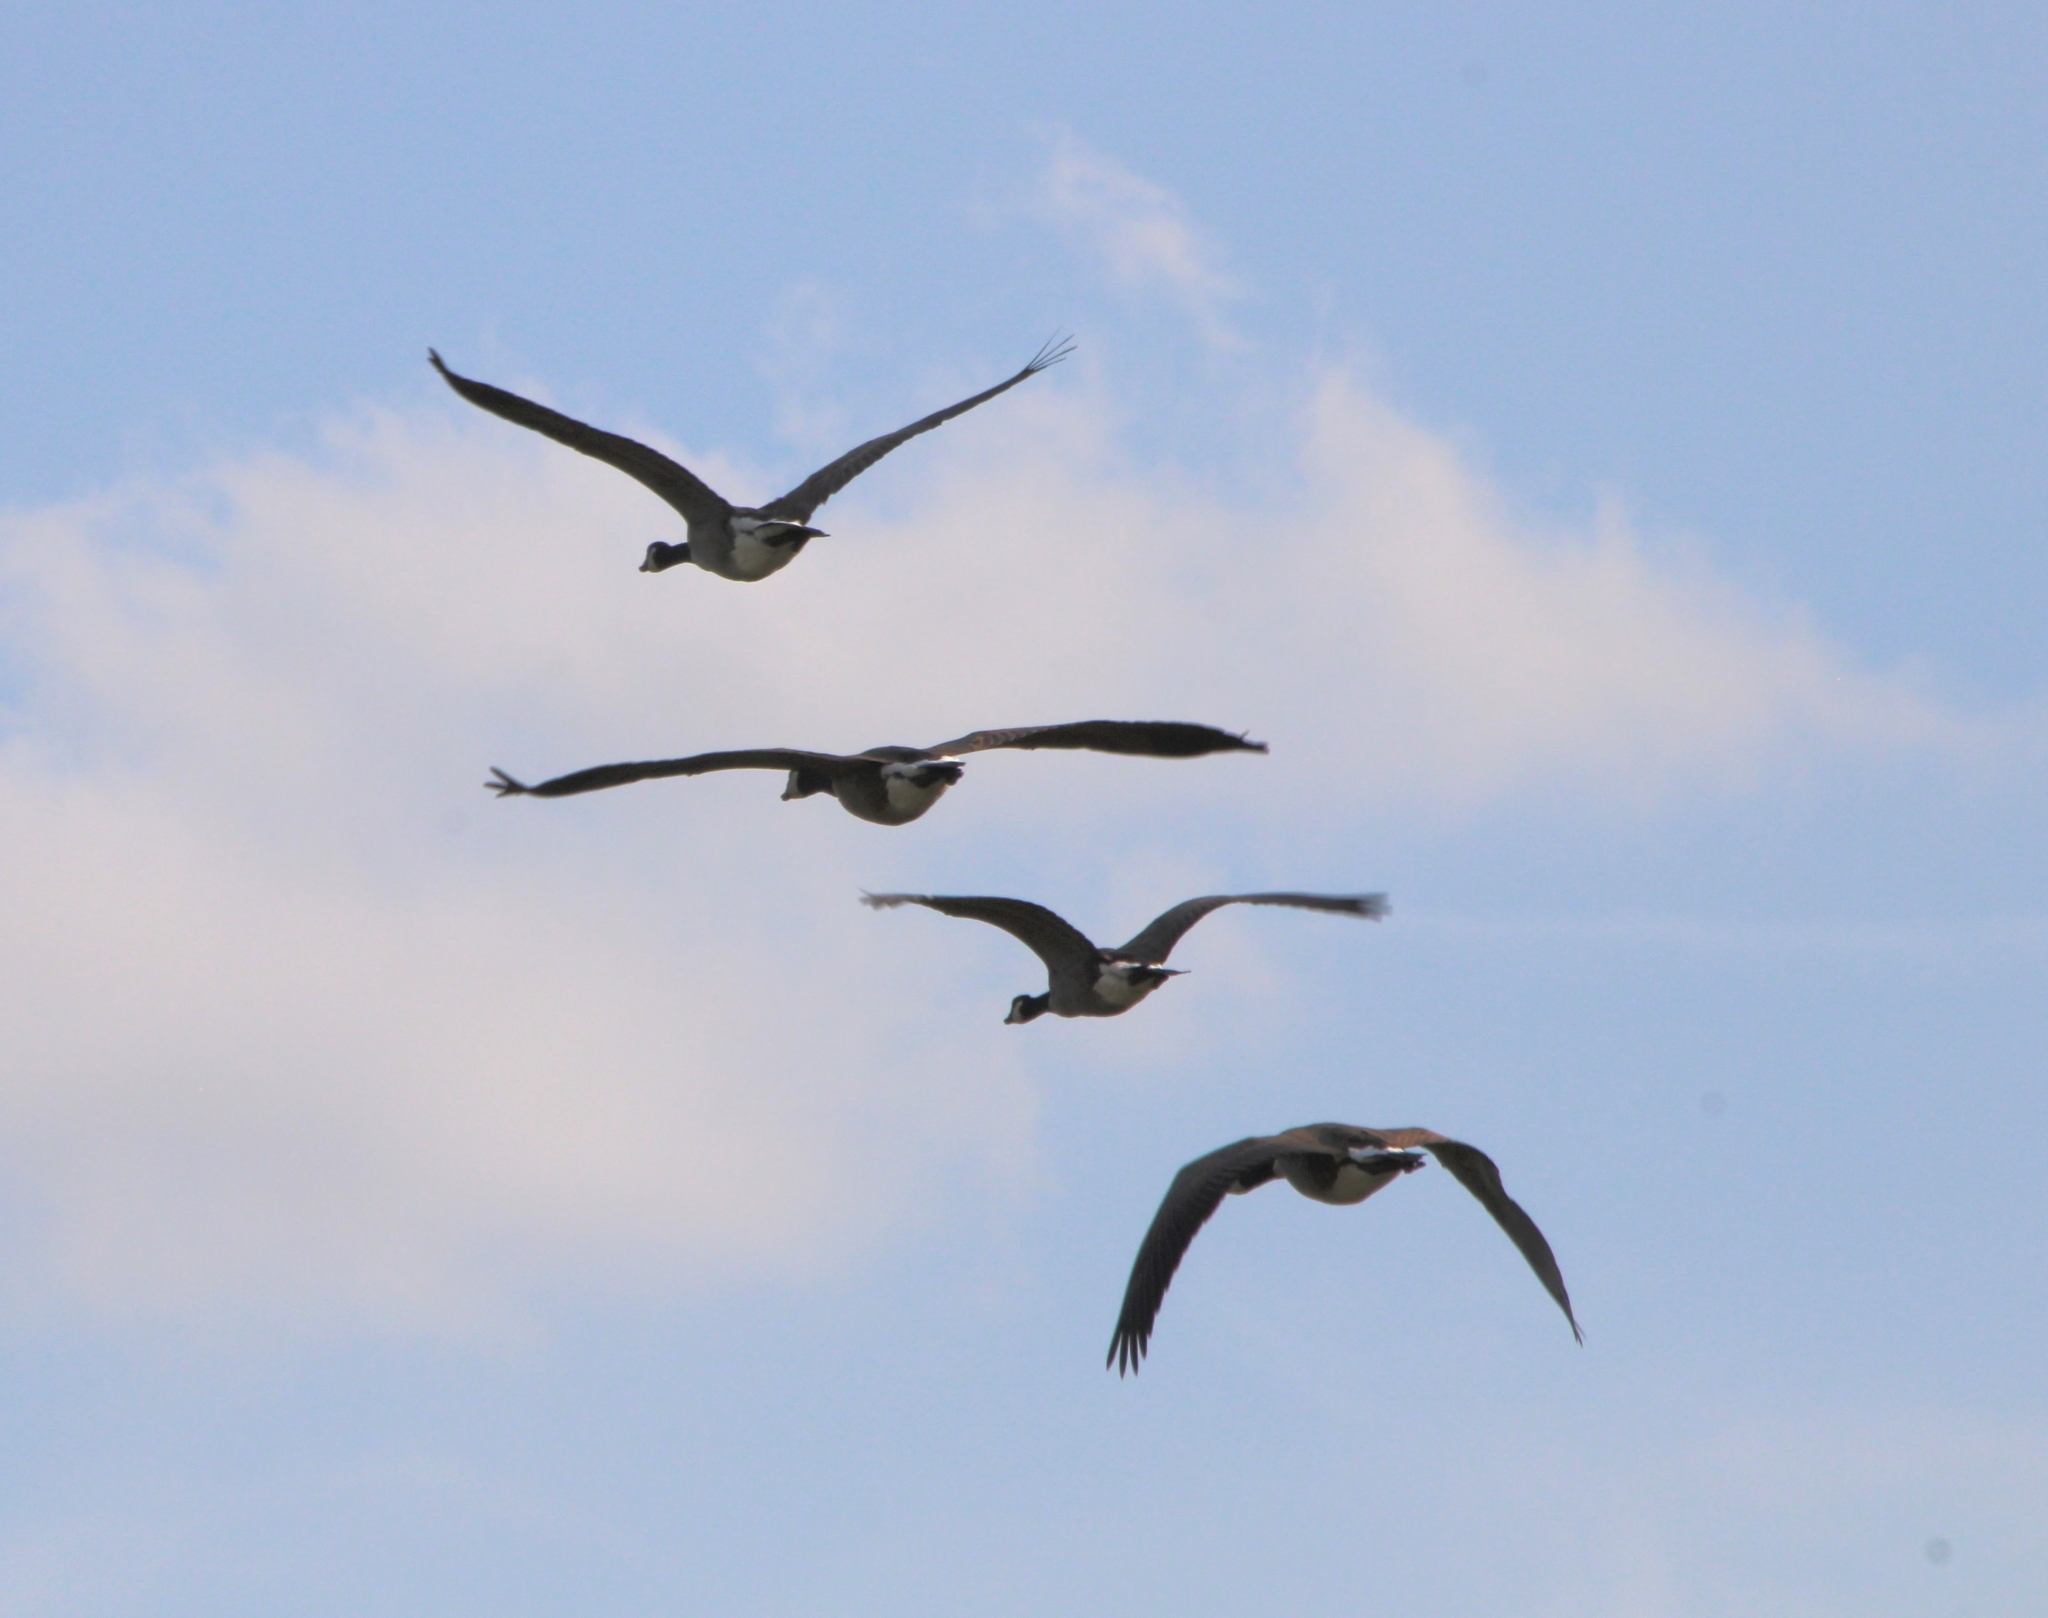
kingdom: Animalia
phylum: Chordata
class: Aves
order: Anseriformes
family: Anatidae
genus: Branta
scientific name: Branta canadensis
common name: Canada goose
